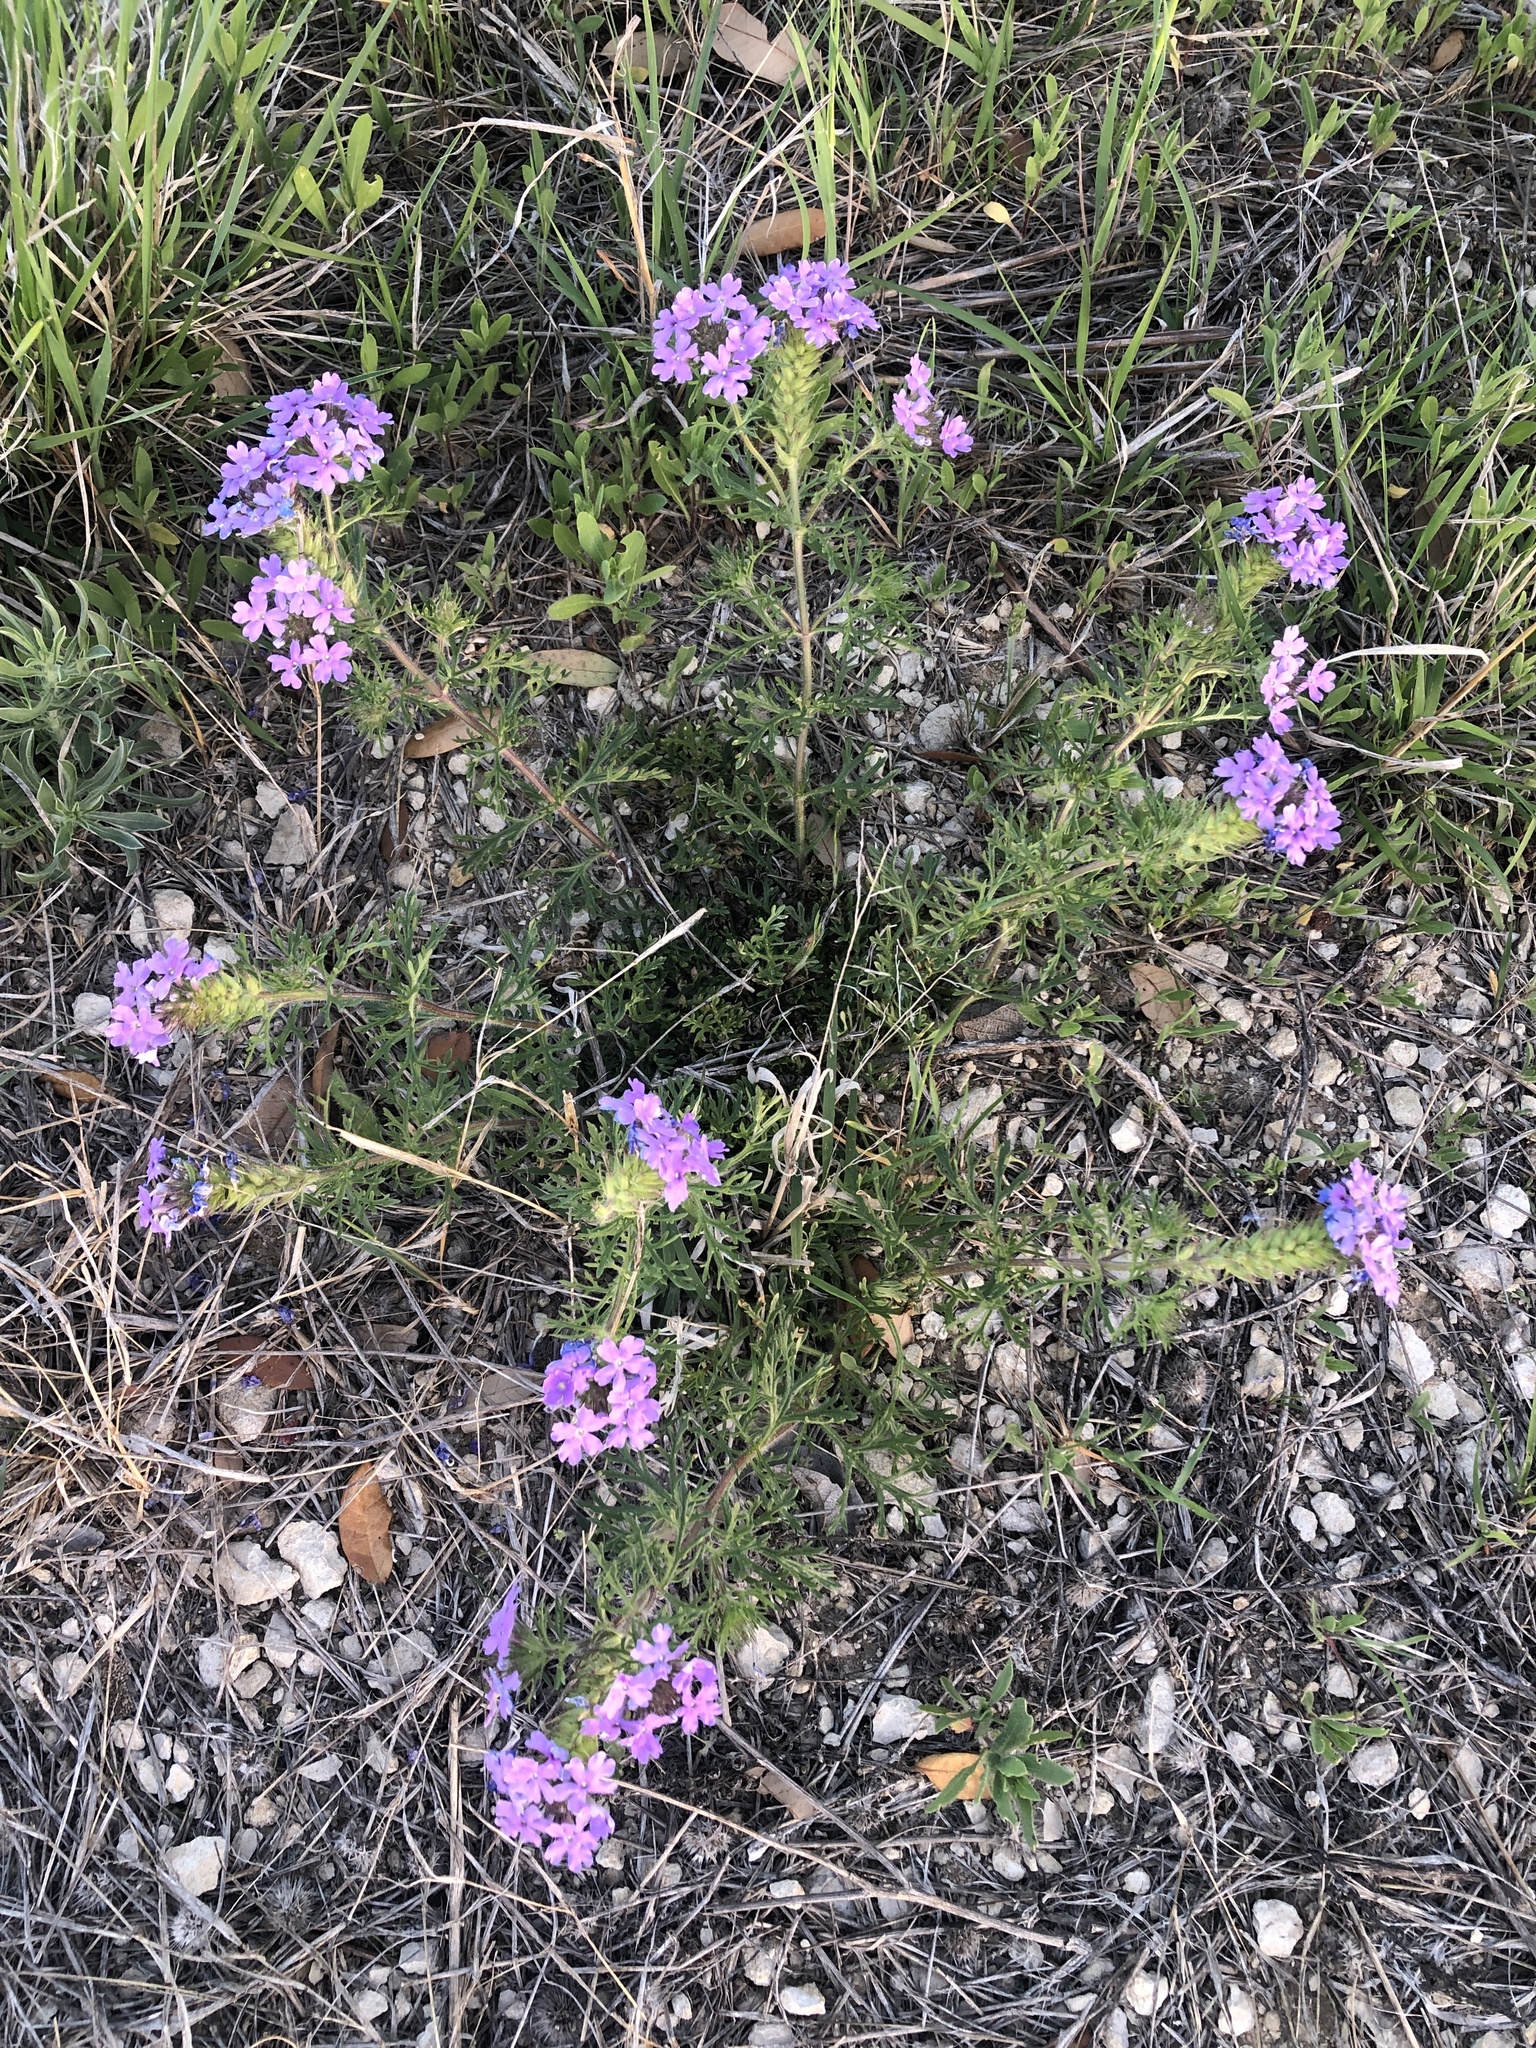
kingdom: Plantae
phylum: Tracheophyta
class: Magnoliopsida
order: Lamiales
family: Verbenaceae
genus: Verbena
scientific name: Verbena bipinnatifida
